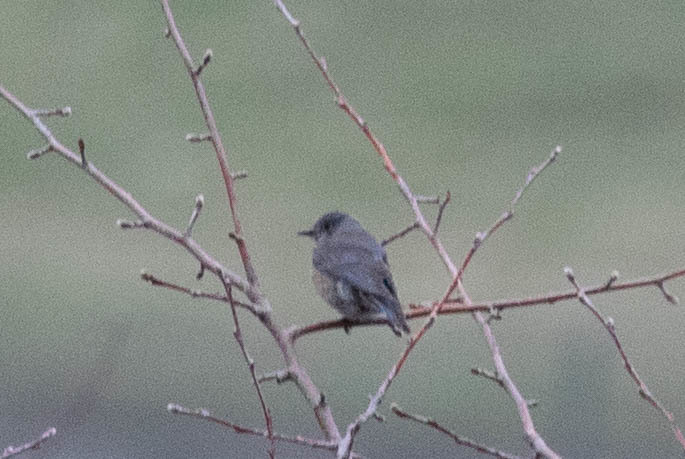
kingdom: Animalia
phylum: Chordata
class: Aves
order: Passeriformes
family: Turdidae
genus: Sialia
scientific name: Sialia mexicana
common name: Western bluebird
